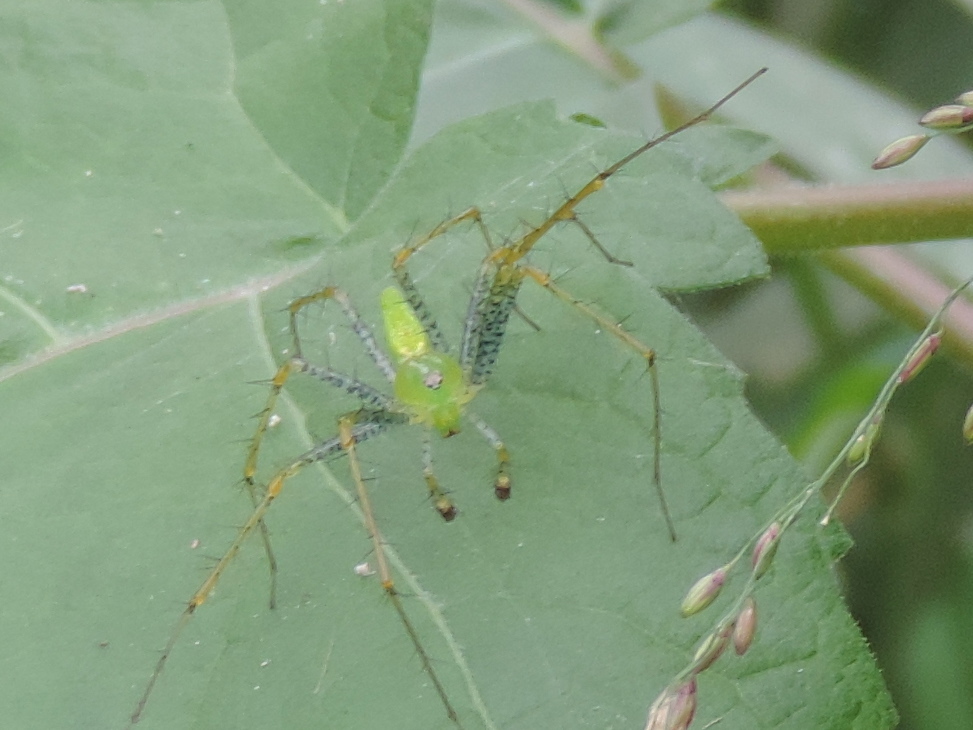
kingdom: Animalia
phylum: Arthropoda
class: Arachnida
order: Araneae
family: Oxyopidae
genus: Peucetia
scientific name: Peucetia longipalpis
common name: Lynx spiders
